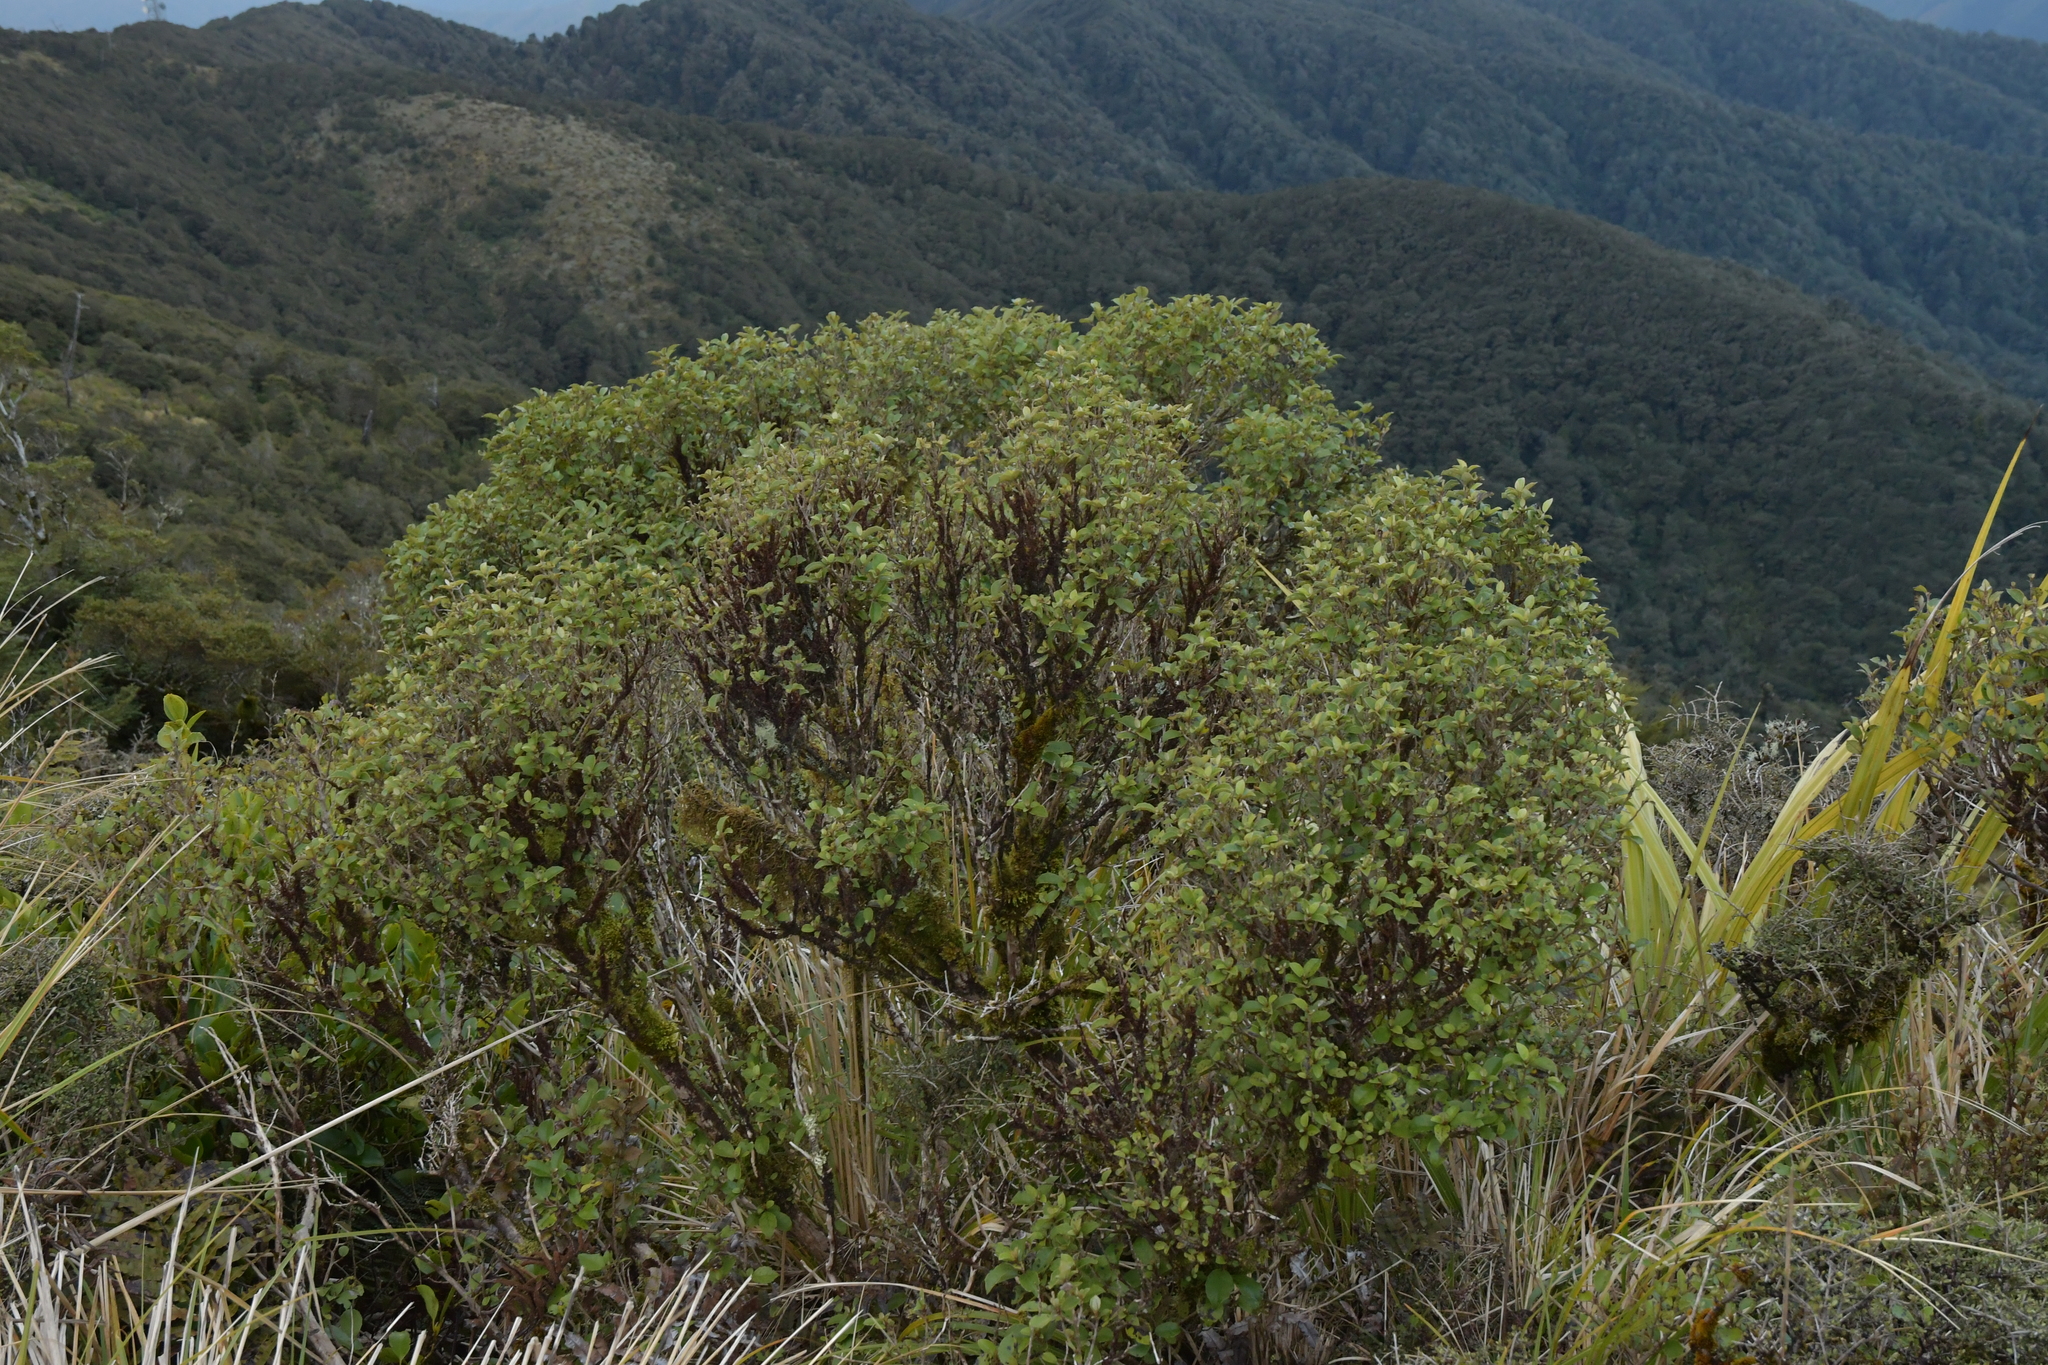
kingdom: Plantae
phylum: Tracheophyta
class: Magnoliopsida
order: Asterales
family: Asteraceae
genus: Olearia
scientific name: Olearia arborescens
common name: Glossy tree daisy
